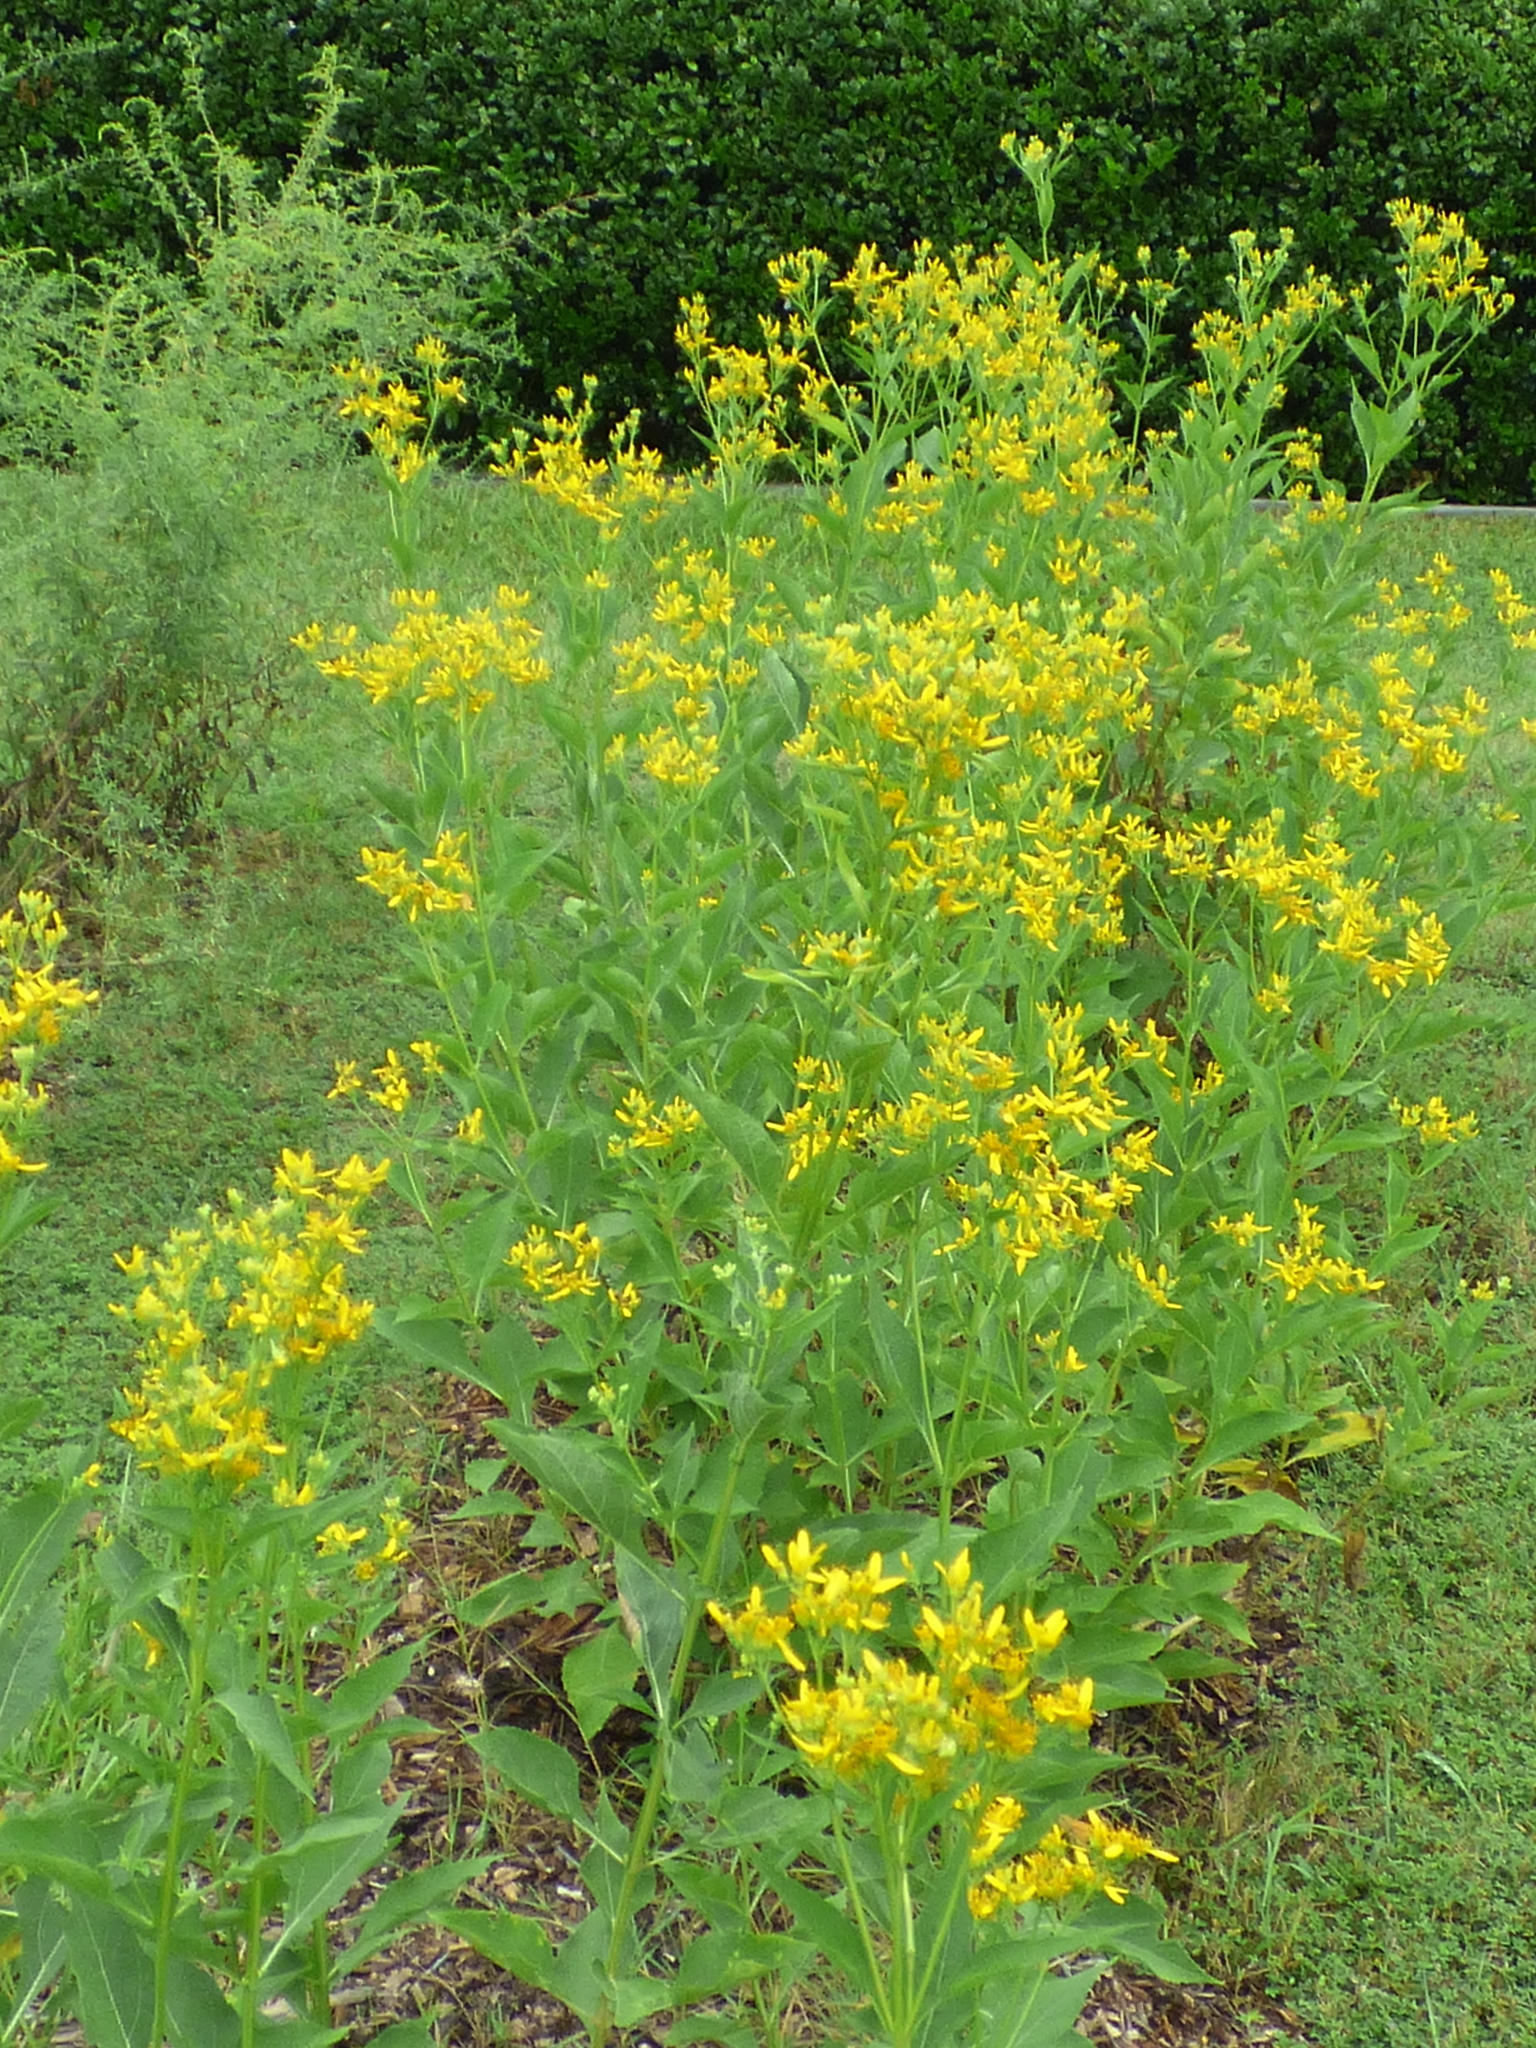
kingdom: Plantae
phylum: Tracheophyta
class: Magnoliopsida
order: Asterales
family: Asteraceae
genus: Verbesina
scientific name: Verbesina occidentalis
